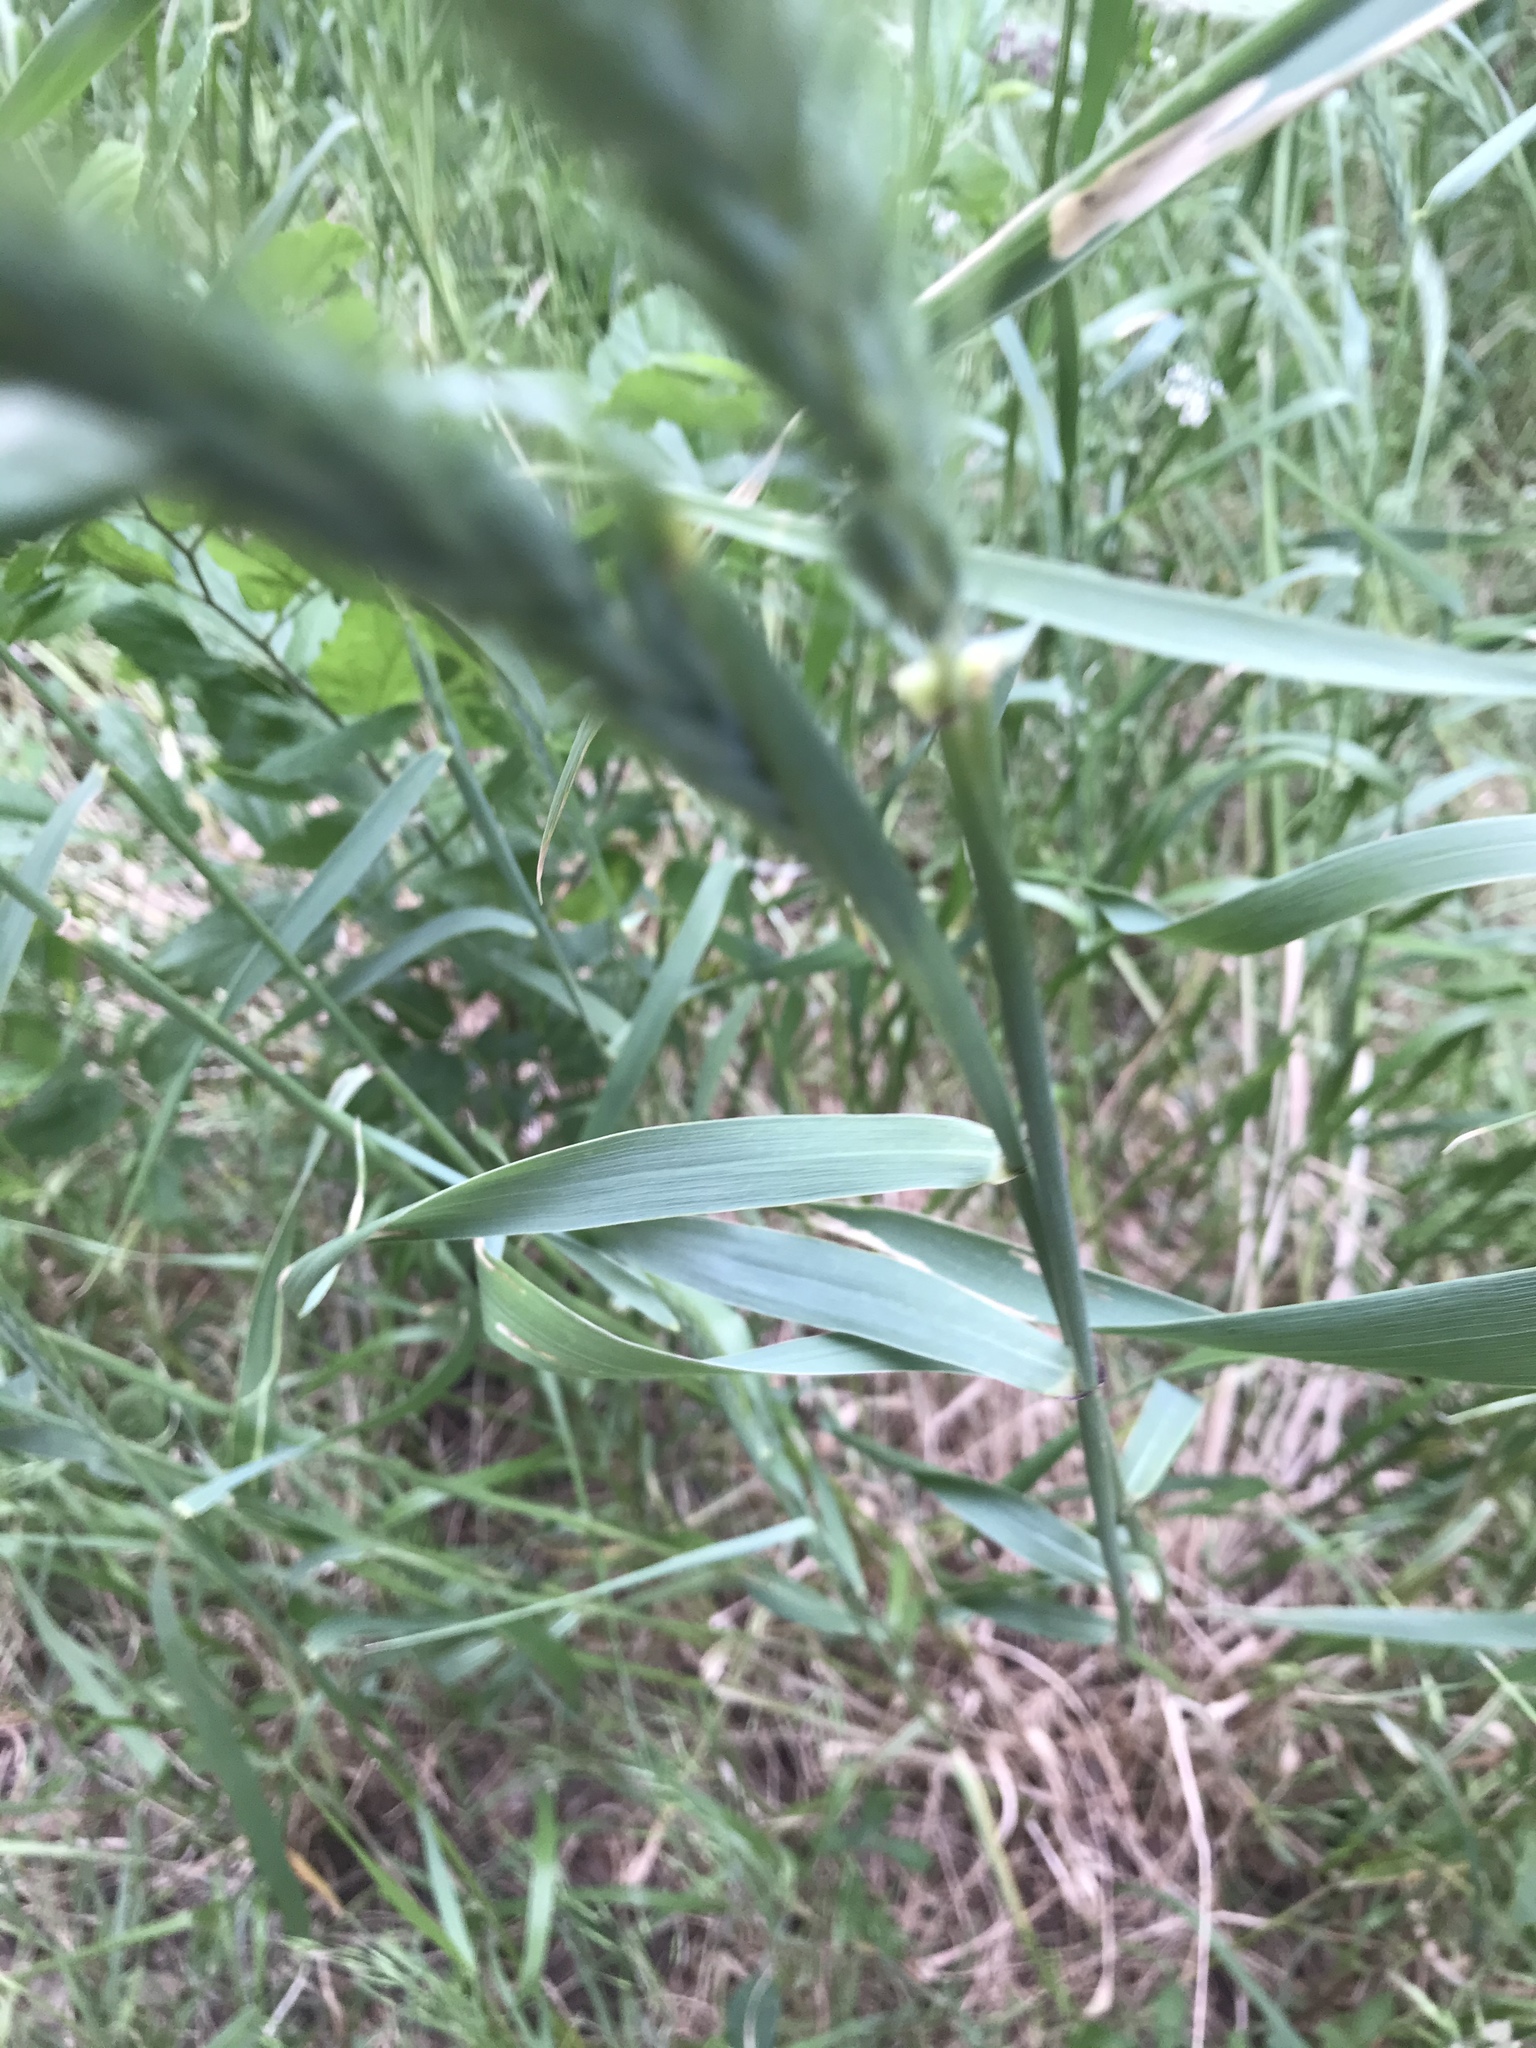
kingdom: Plantae
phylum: Tracheophyta
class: Liliopsida
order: Poales
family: Poaceae
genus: Elymus
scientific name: Elymus canadensis
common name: Canada wild rye
